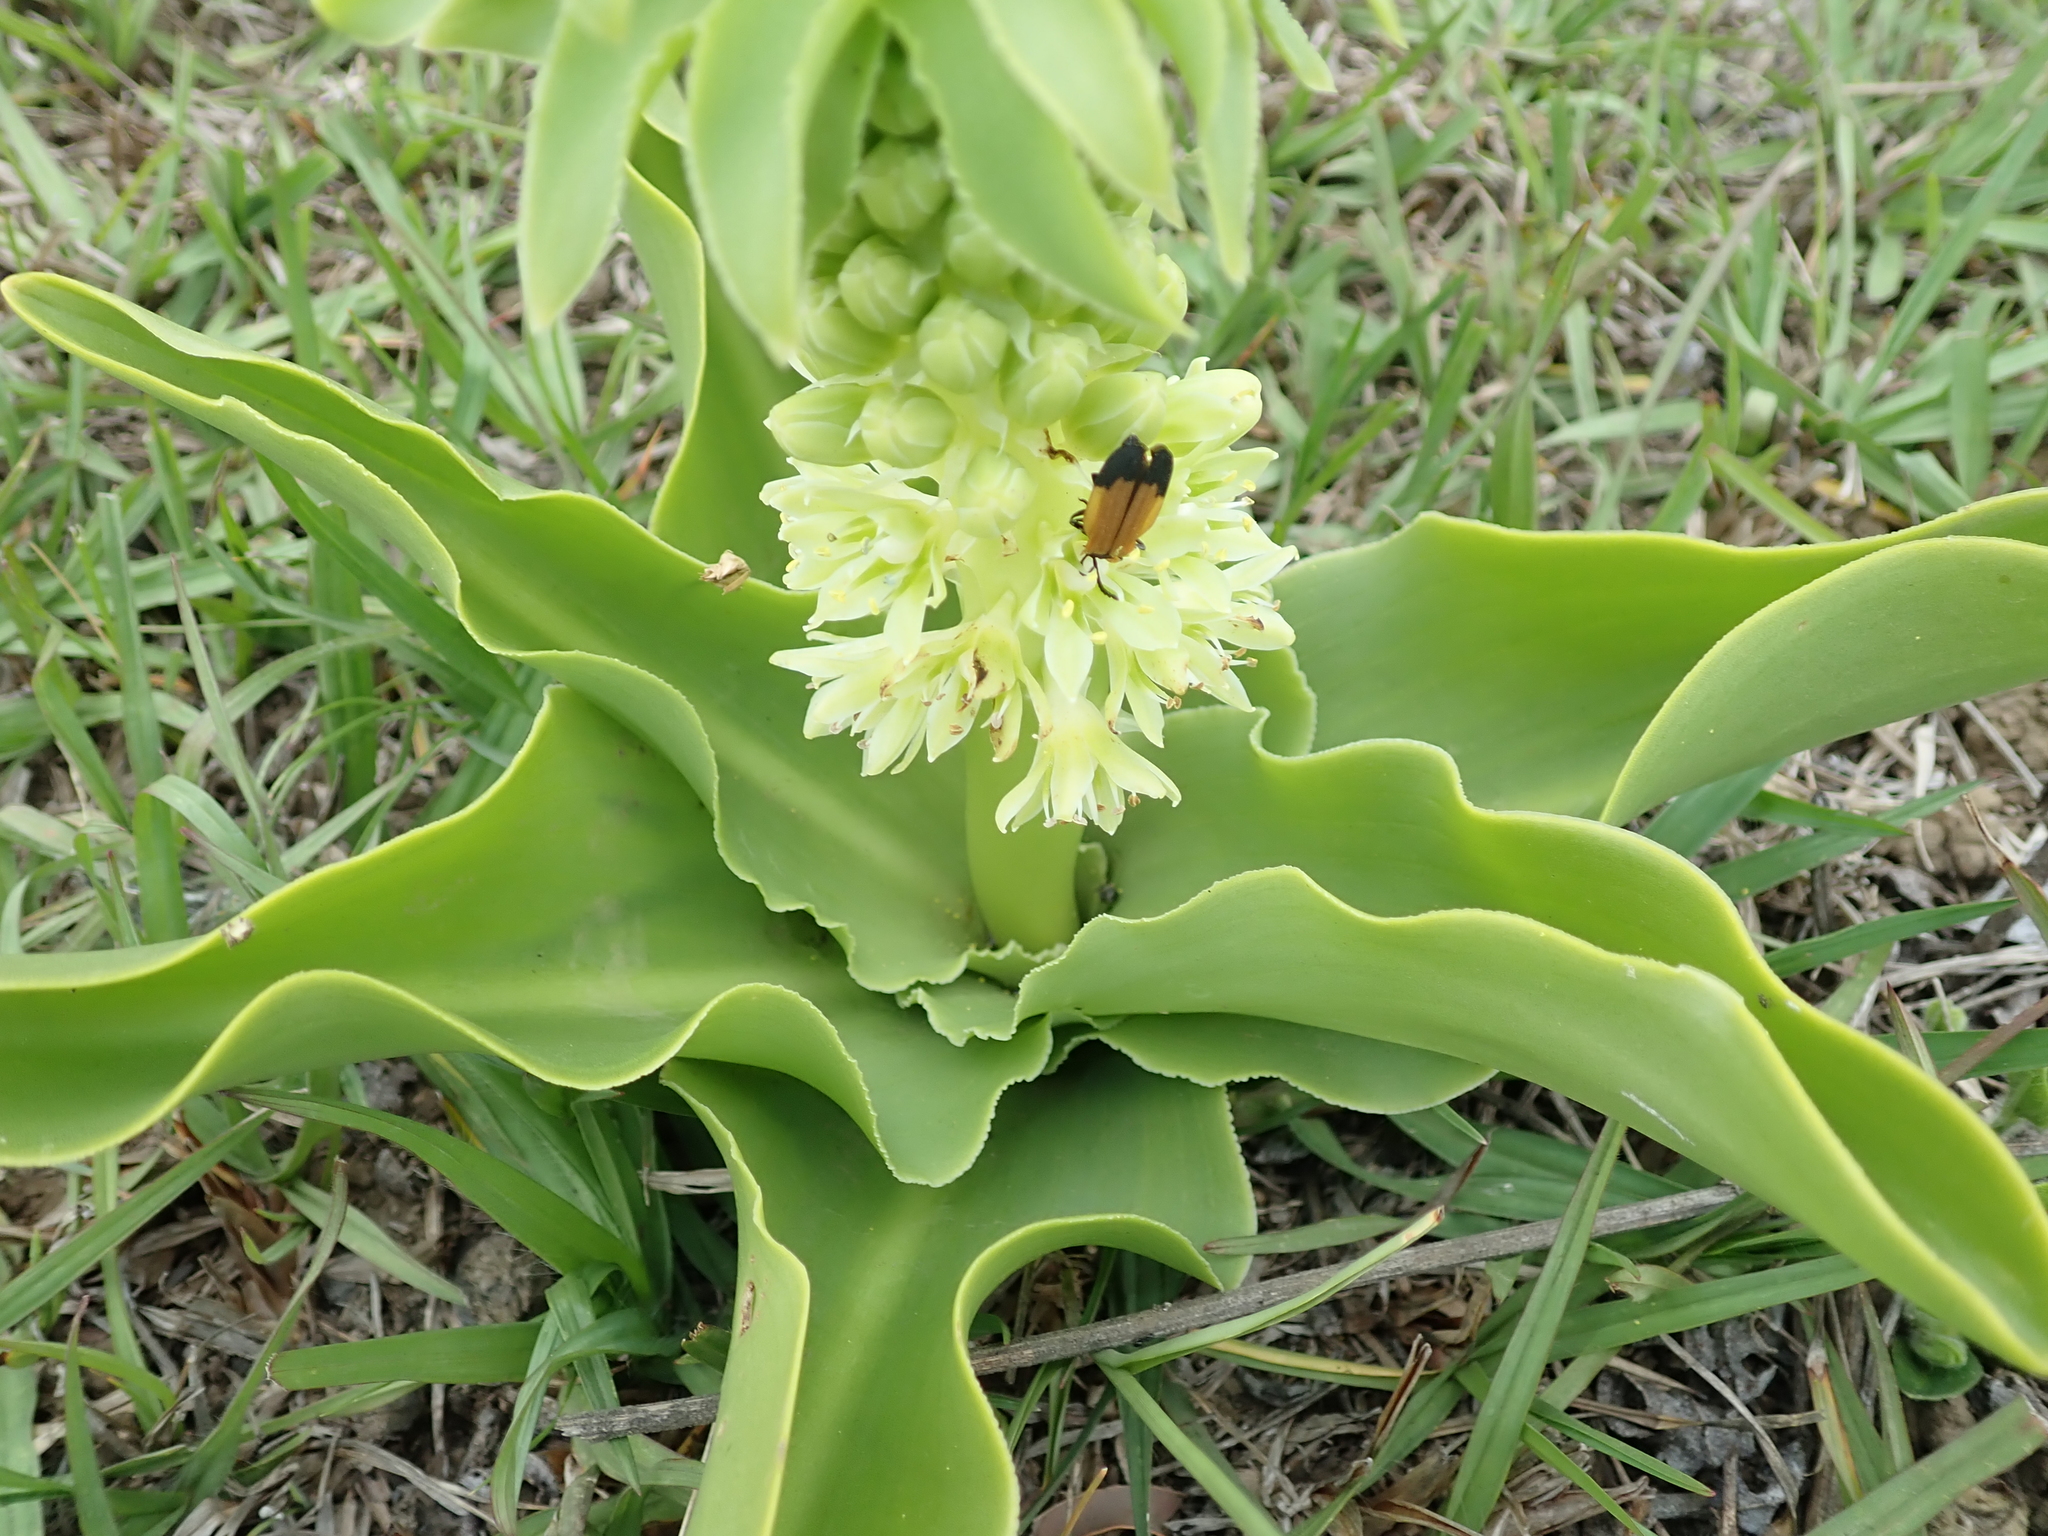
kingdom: Plantae
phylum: Tracheophyta
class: Liliopsida
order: Asparagales
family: Asparagaceae
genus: Eucomis
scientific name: Eucomis autumnalis
